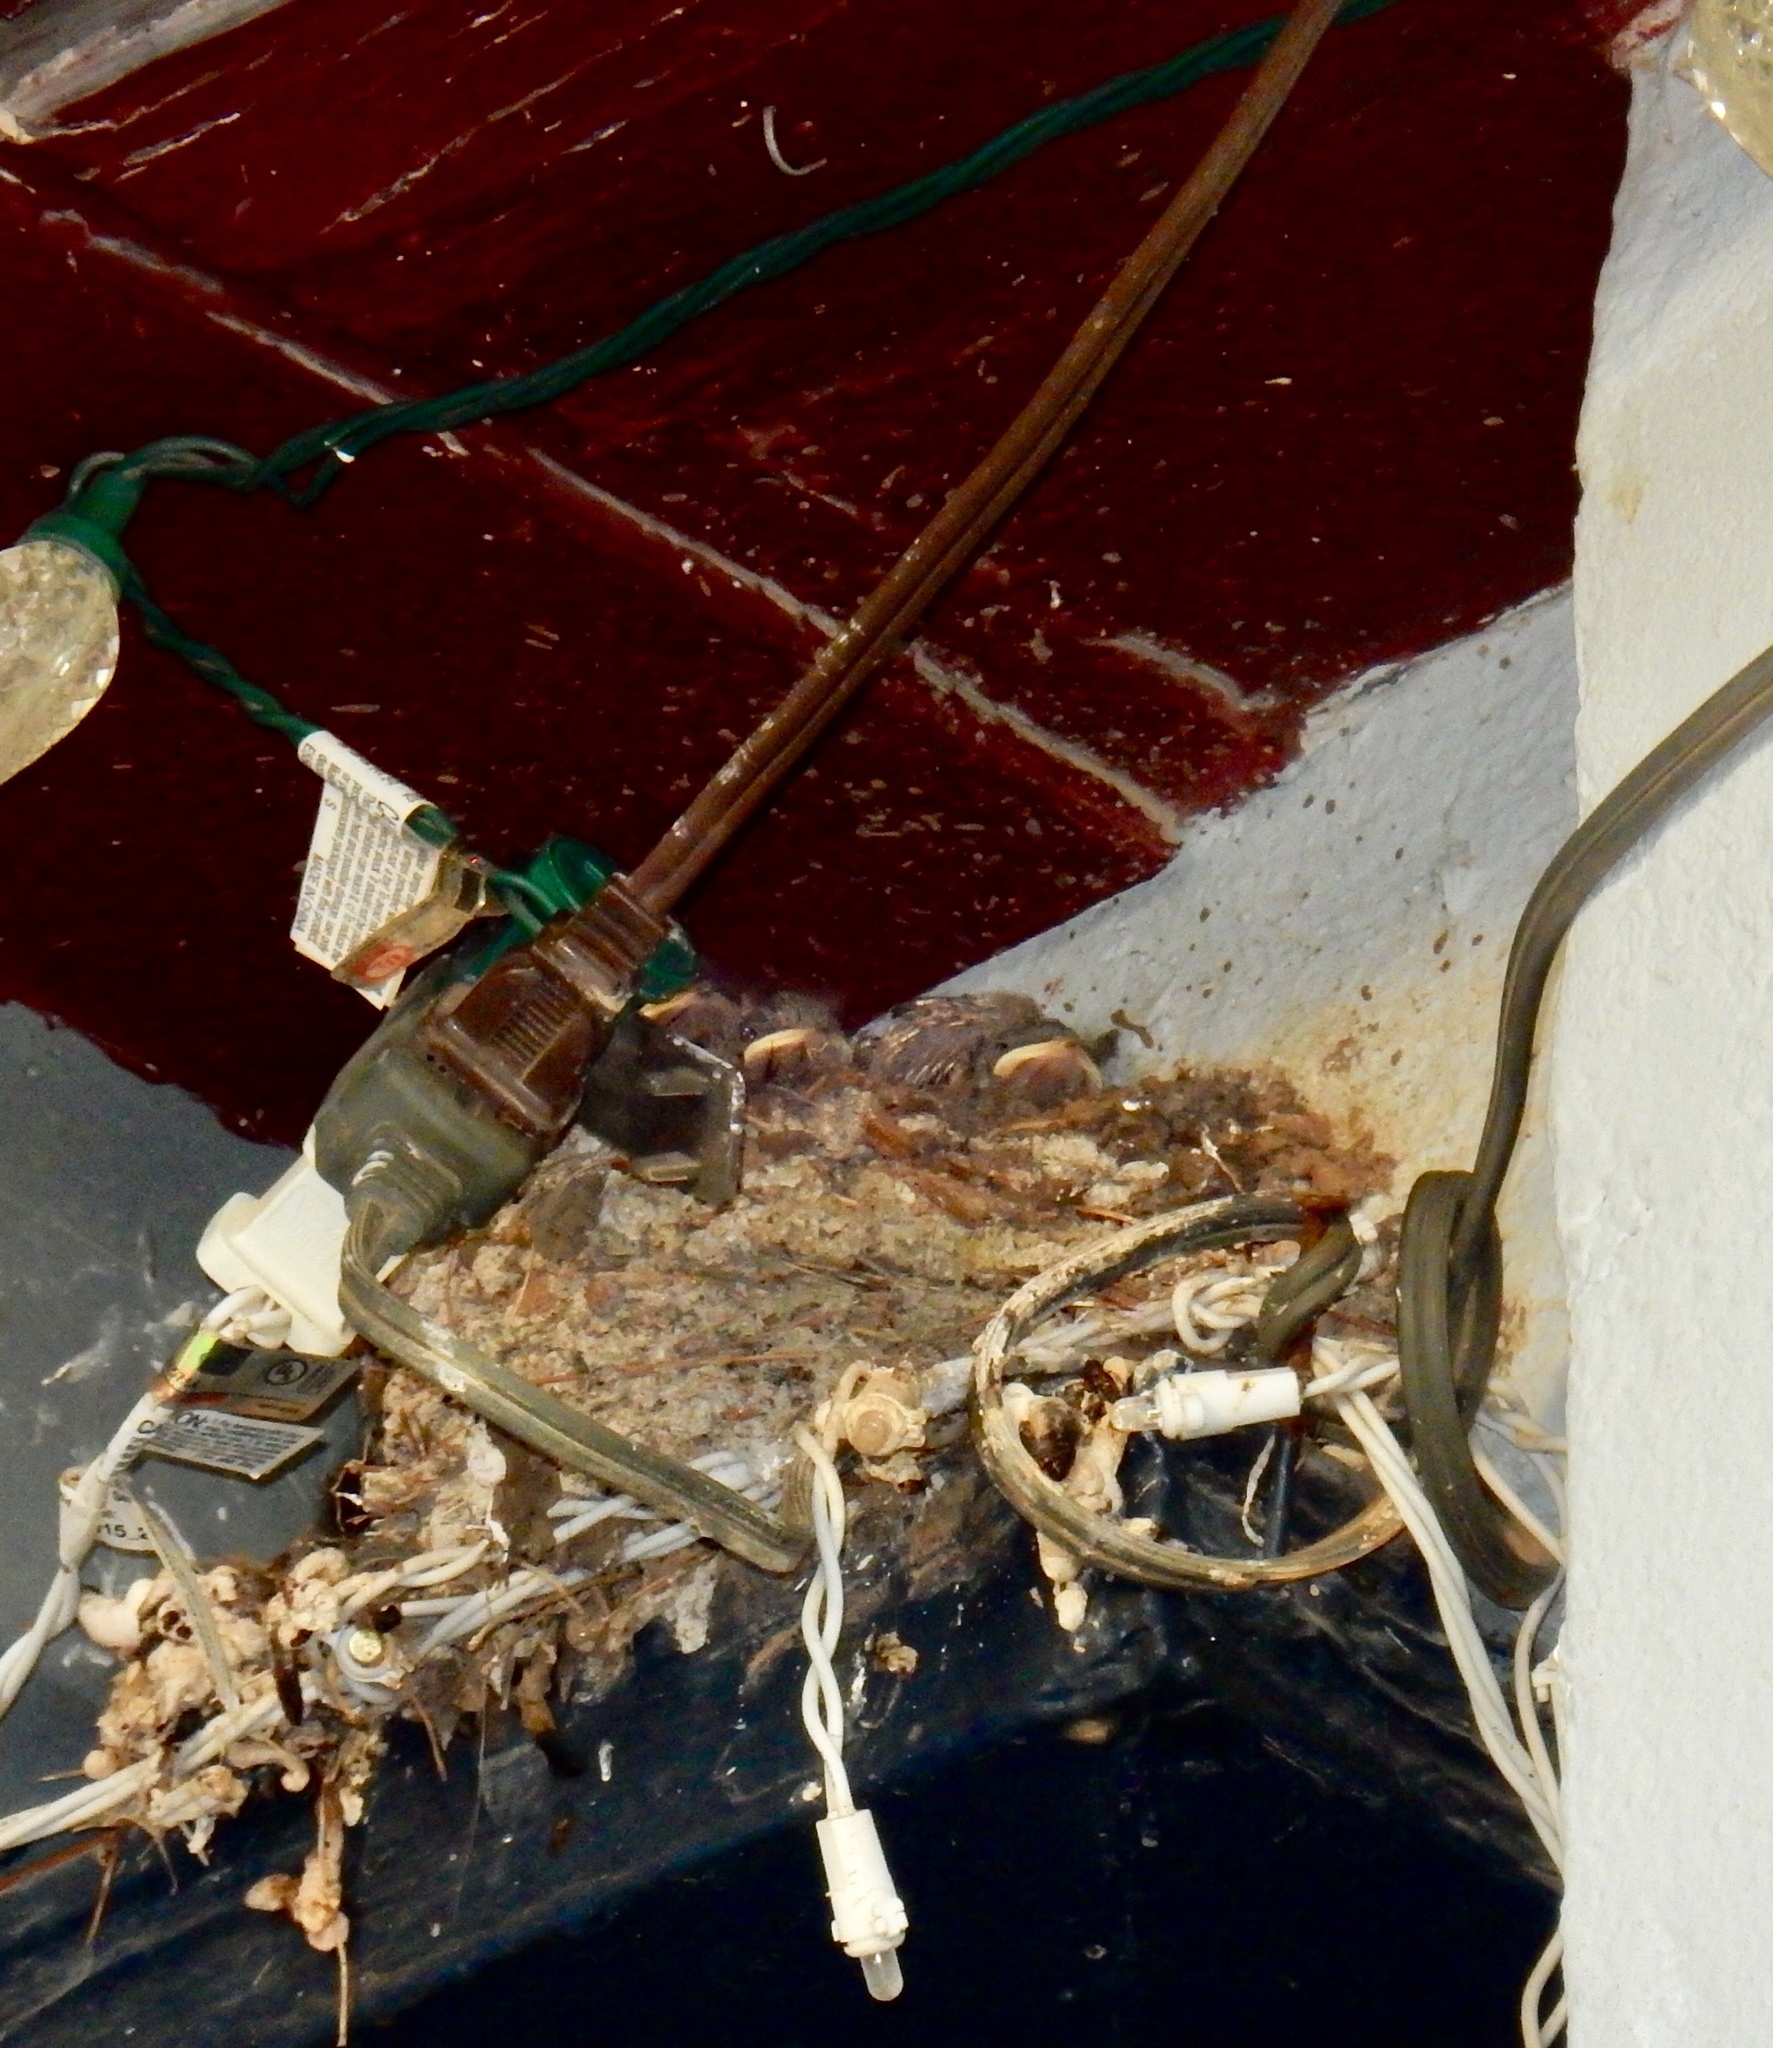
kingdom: Animalia
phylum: Chordata
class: Aves
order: Passeriformes
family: Hirundinidae
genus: Hirundo
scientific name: Hirundo rustica
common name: Barn swallow
